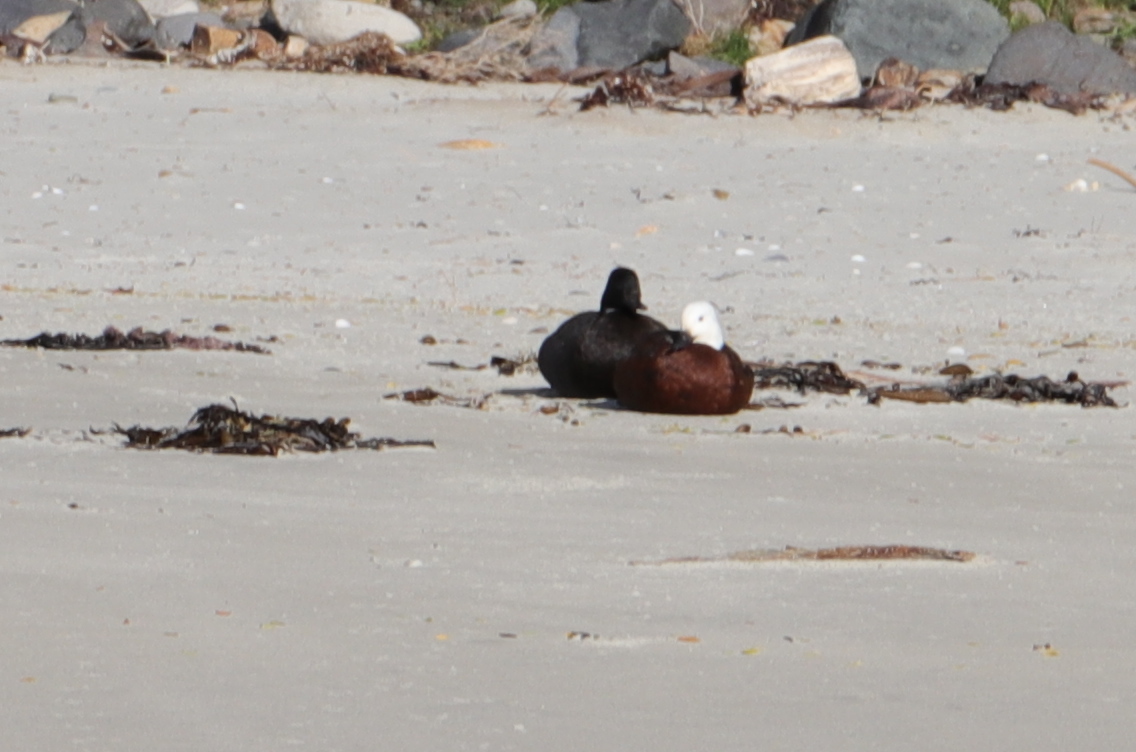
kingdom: Animalia
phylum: Chordata
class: Aves
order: Anseriformes
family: Anatidae
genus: Tadorna
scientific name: Tadorna variegata
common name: Paradise shelduck
